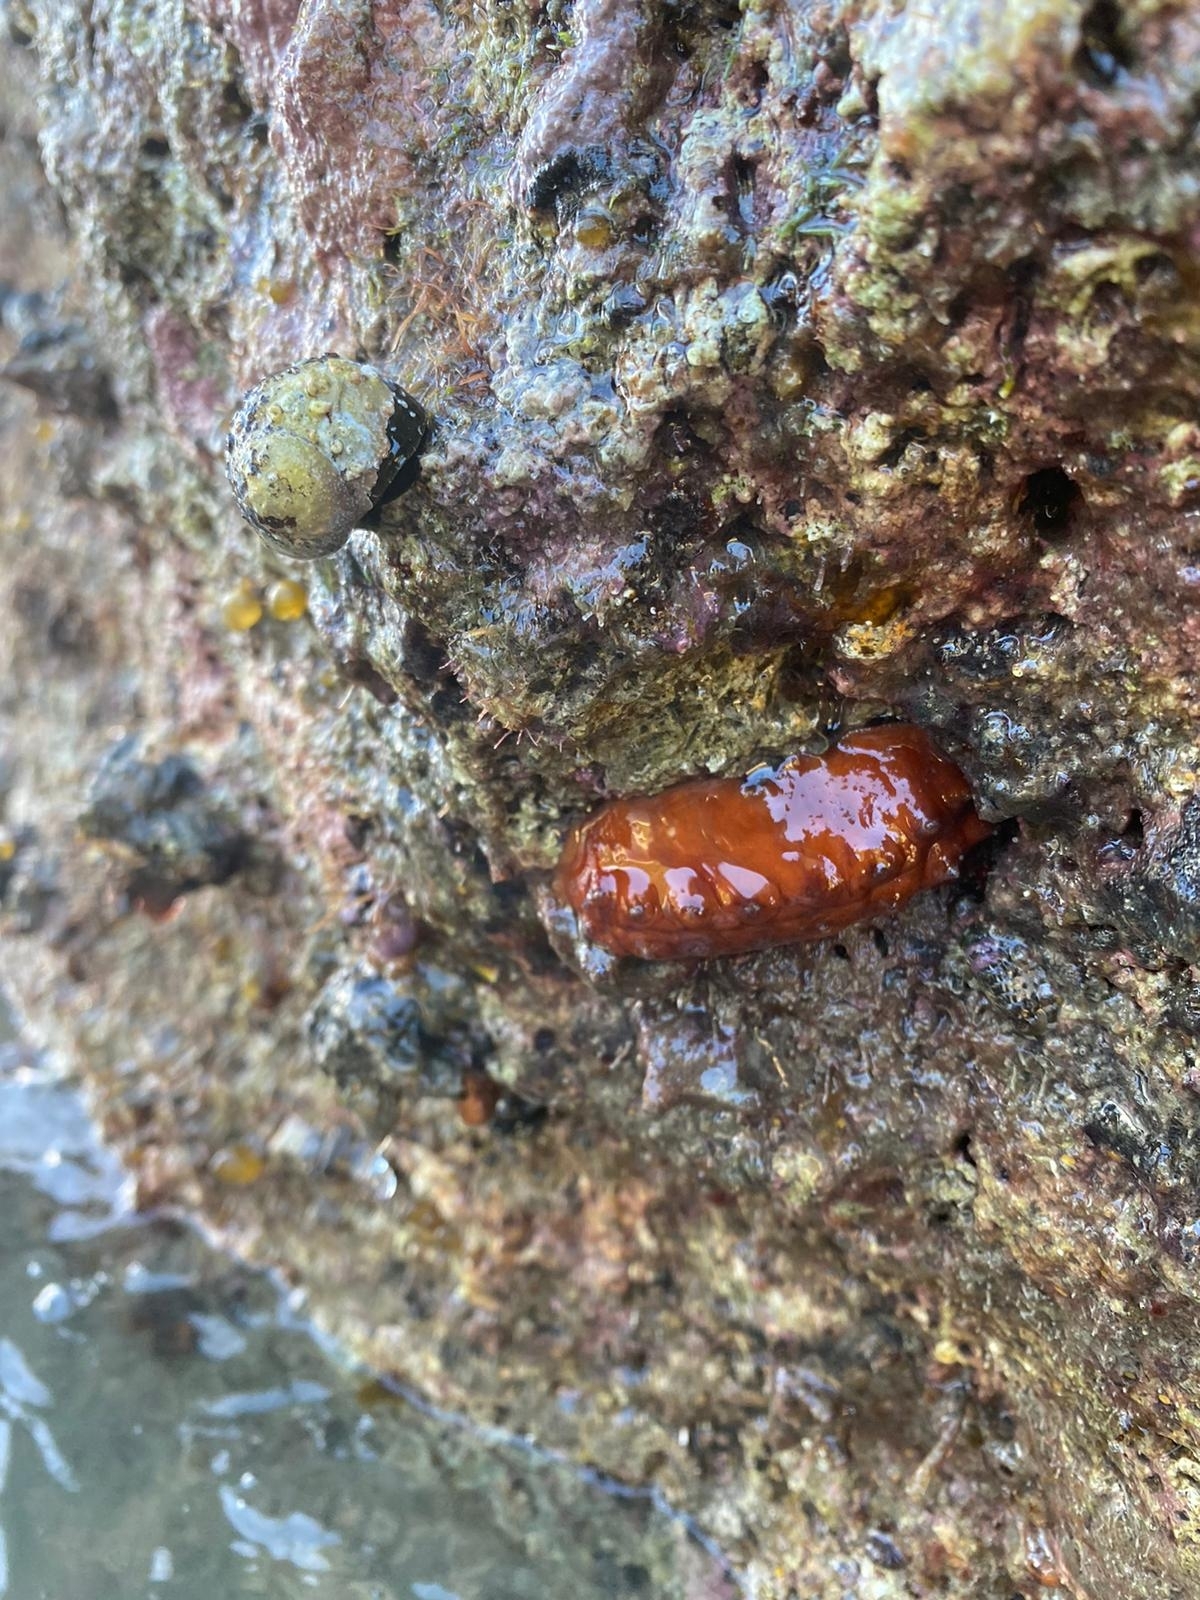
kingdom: Animalia
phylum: Mollusca
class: Polyplacophora
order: Chitonida
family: Acanthochitonidae
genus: Cryptoconchus
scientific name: Cryptoconchus porosus
